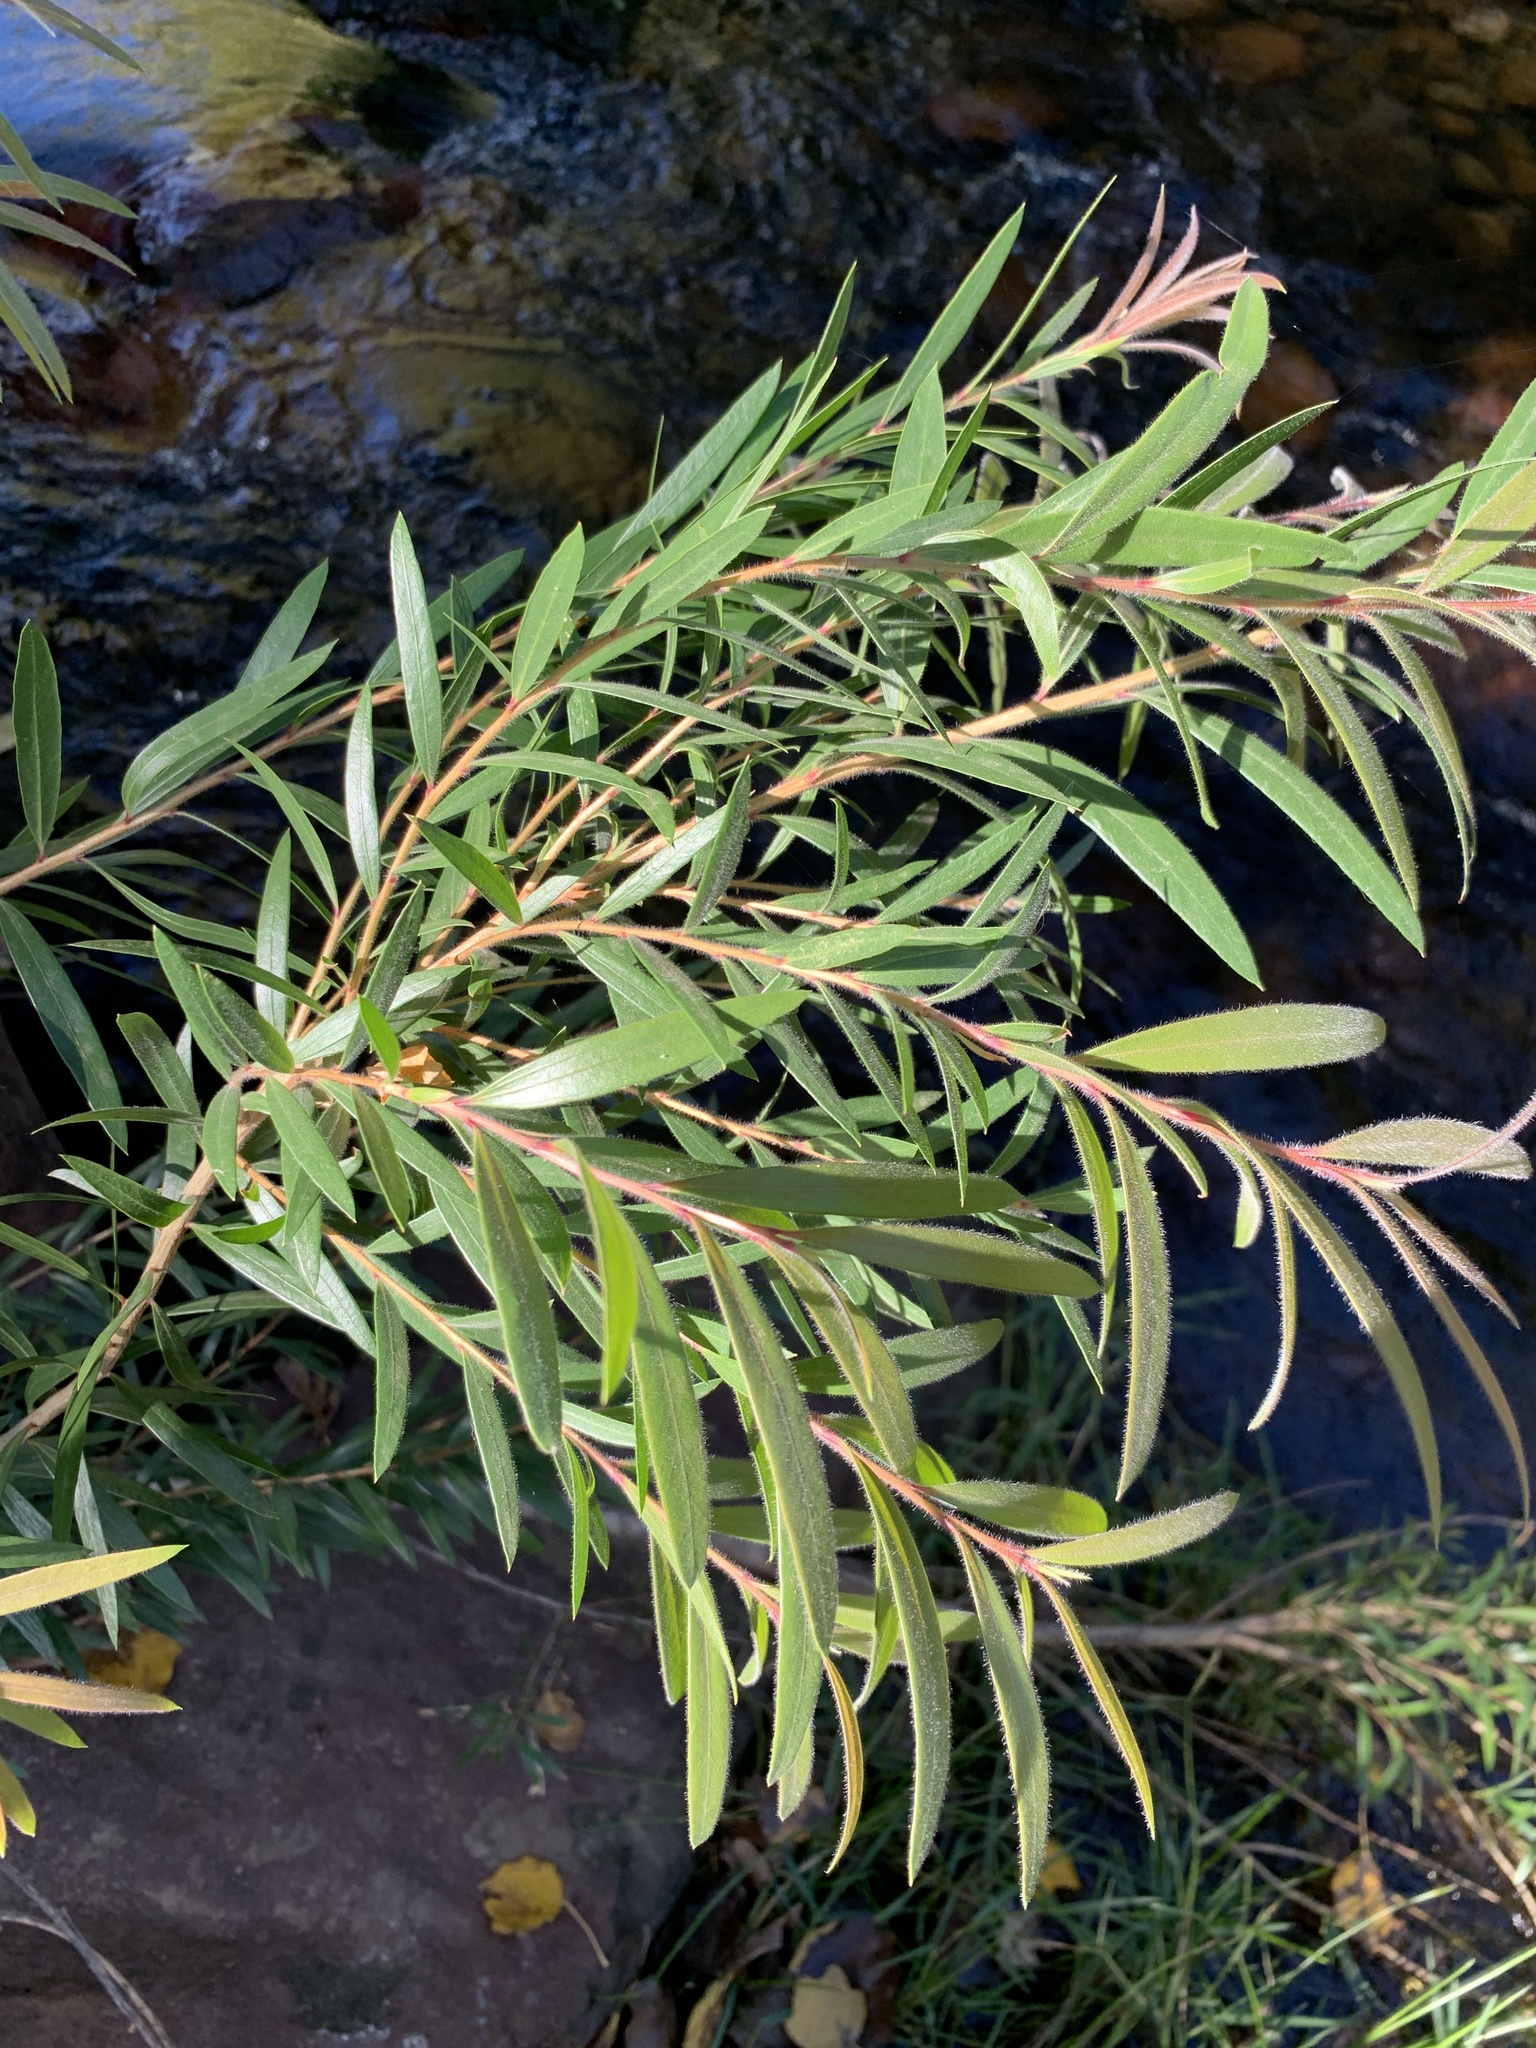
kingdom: Plantae
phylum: Tracheophyta
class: Magnoliopsida
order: Myrtales
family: Myrtaceae
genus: Callistemon
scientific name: Callistemon viminalis
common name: Drooping bottlebrush
